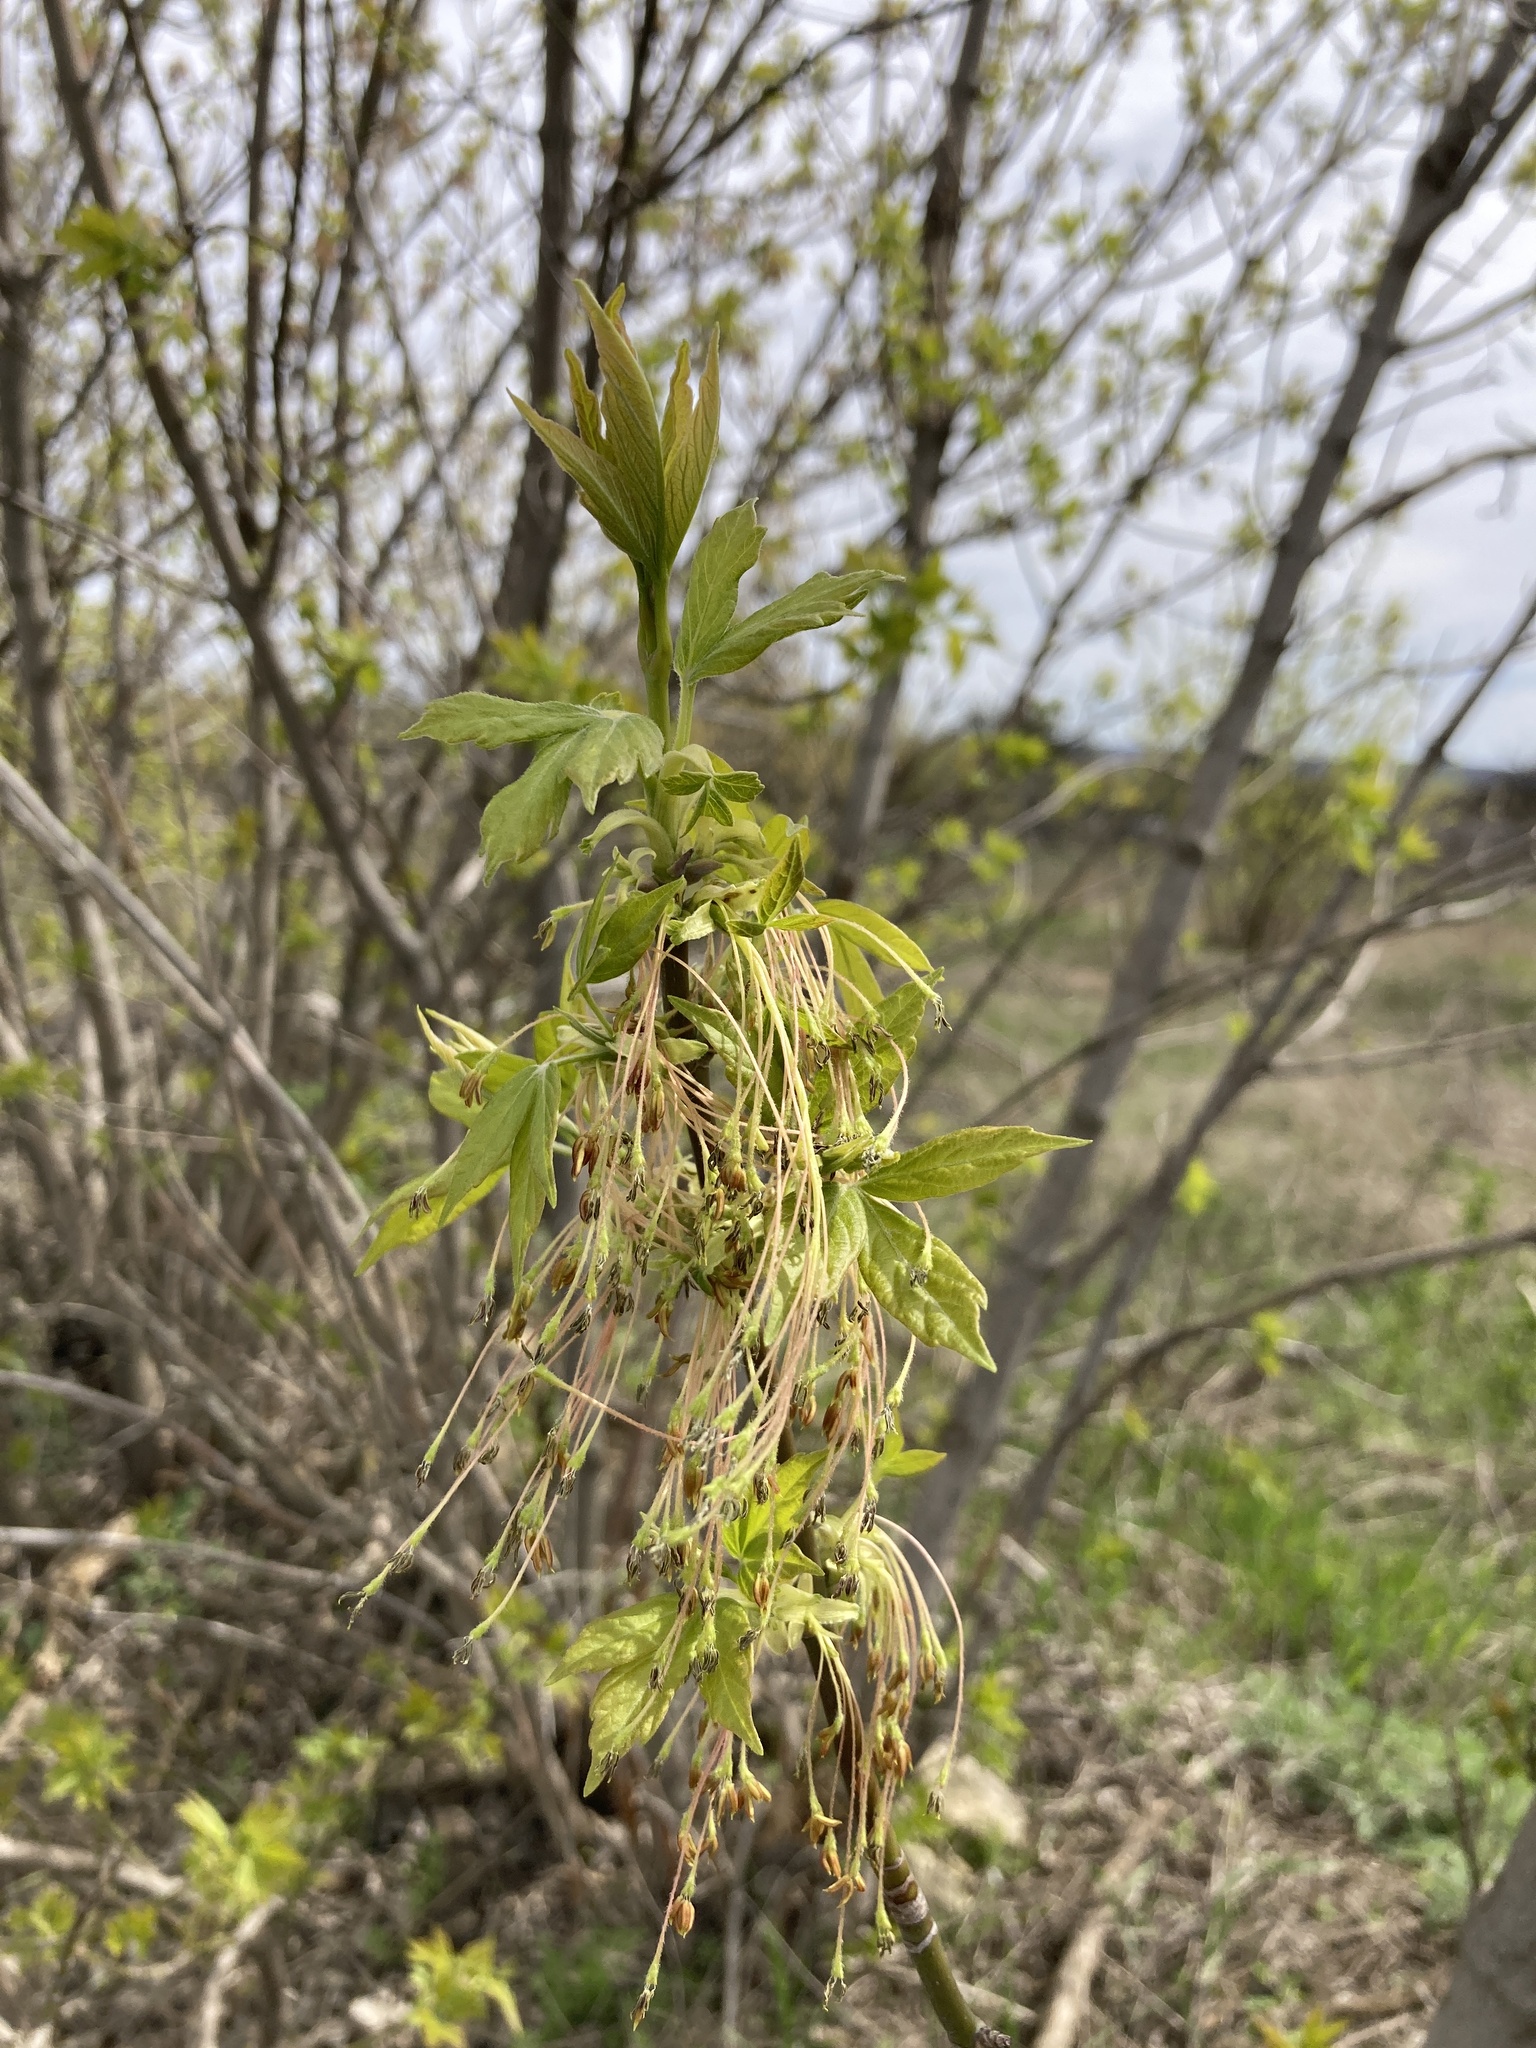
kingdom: Plantae
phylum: Tracheophyta
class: Magnoliopsida
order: Sapindales
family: Sapindaceae
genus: Acer
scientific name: Acer negundo
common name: Ashleaf maple
